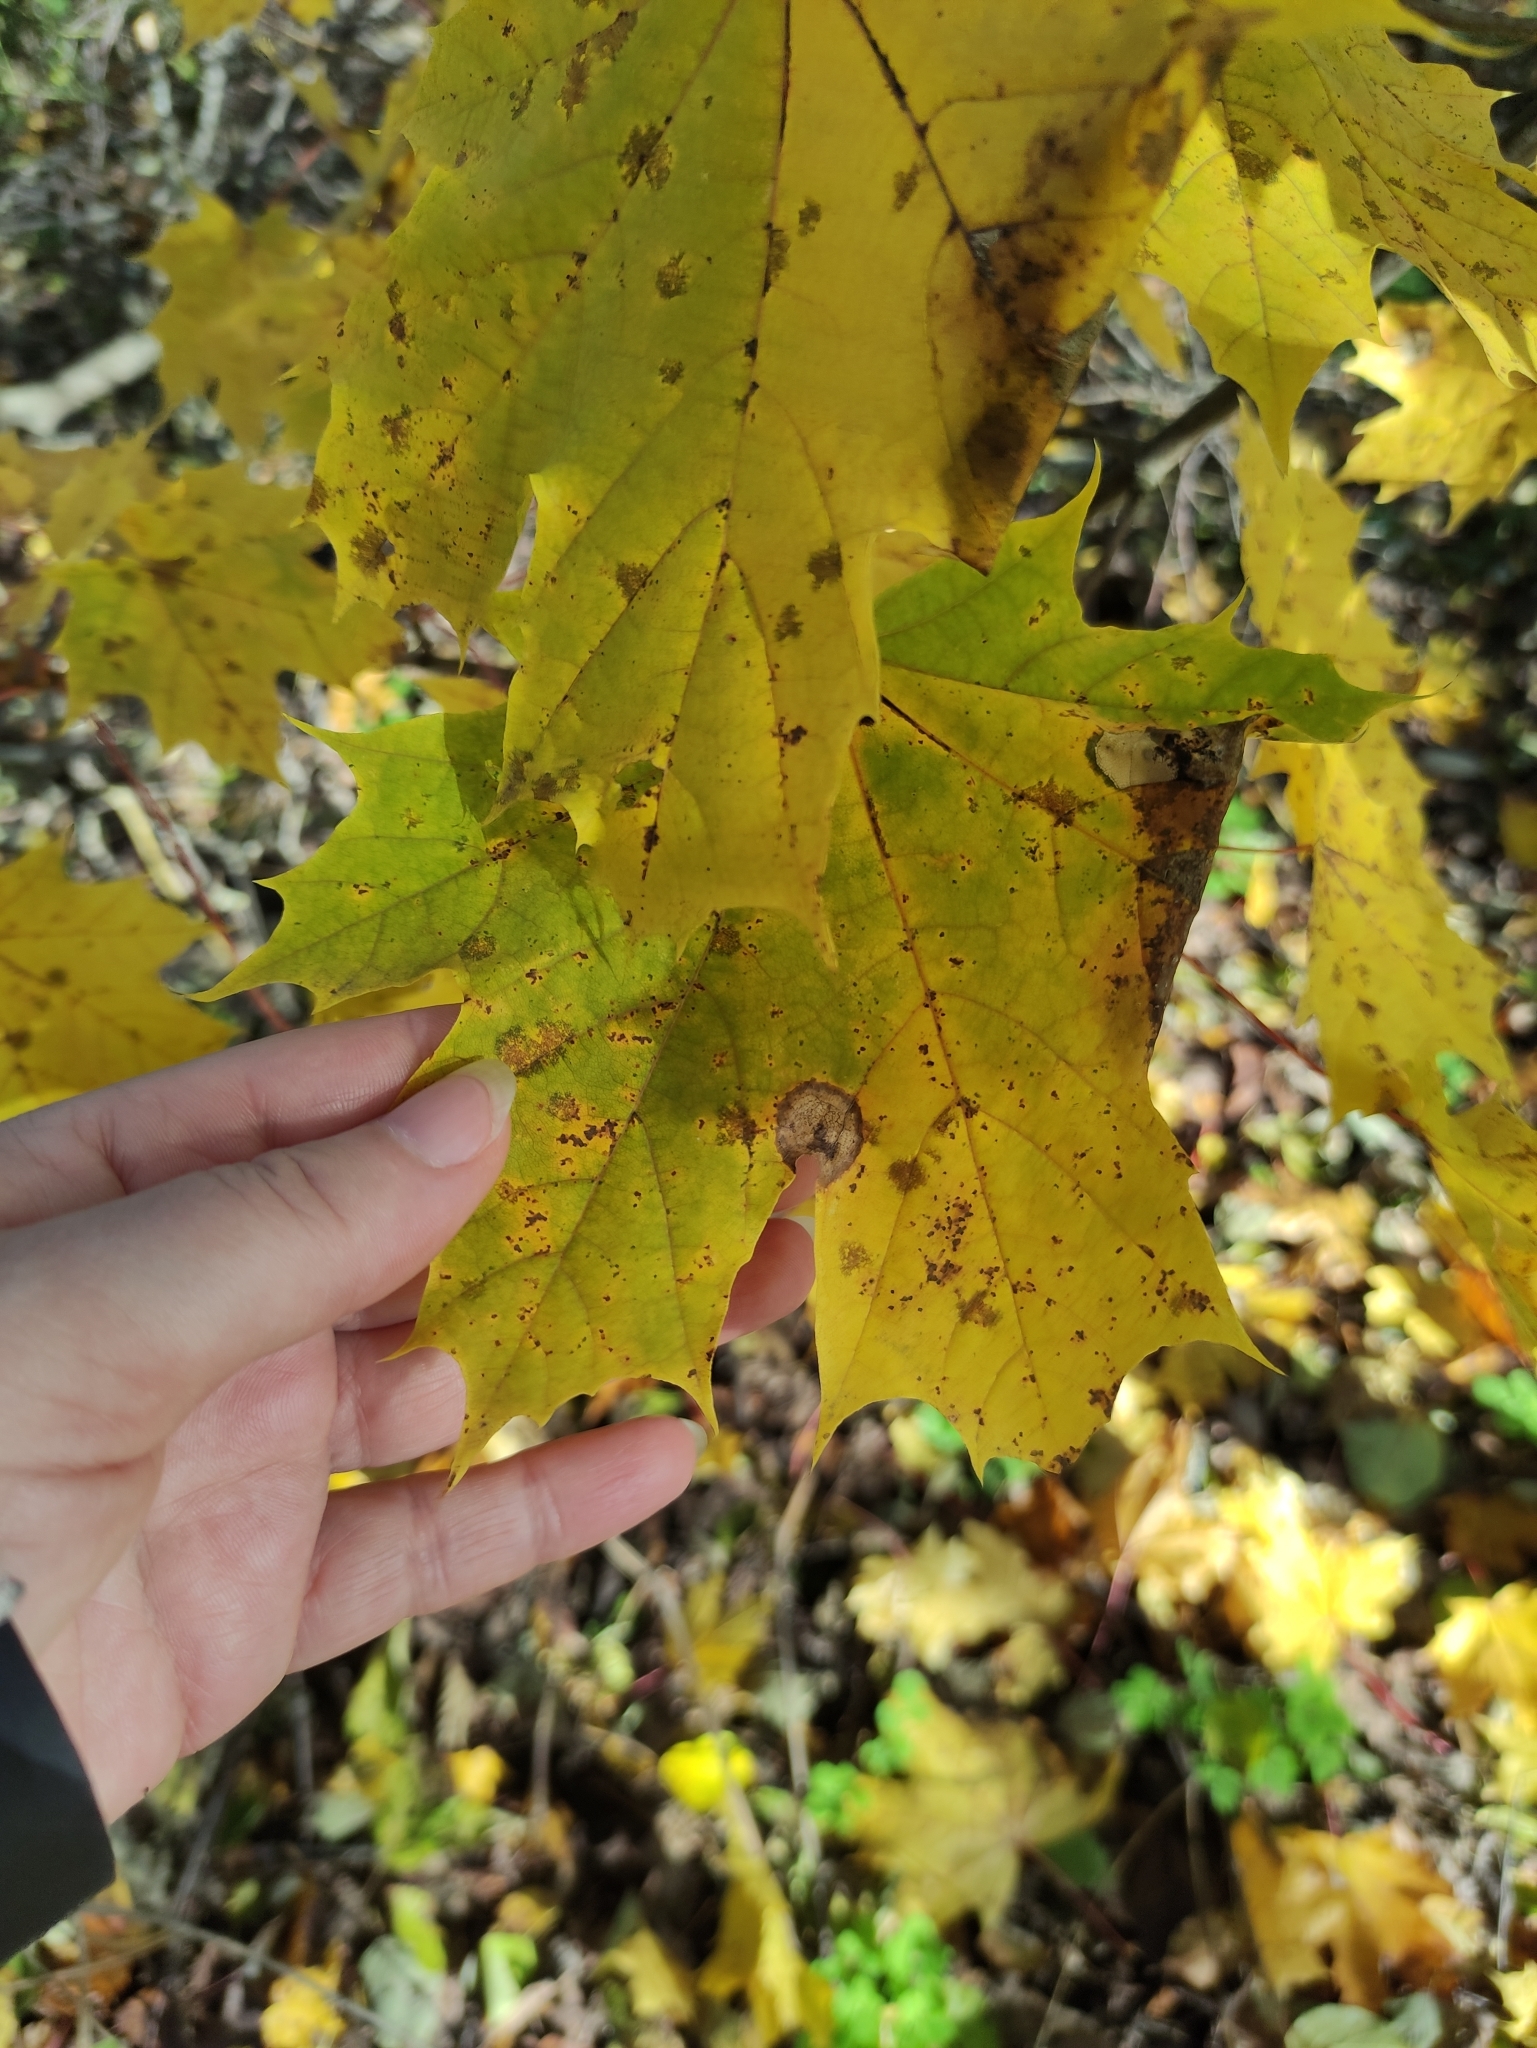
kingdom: Fungi
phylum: Ascomycota
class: Leotiomycetes
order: Rhytismatales
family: Rhytismataceae
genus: Rhytisma
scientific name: Rhytisma acerinum
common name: European tar spot
